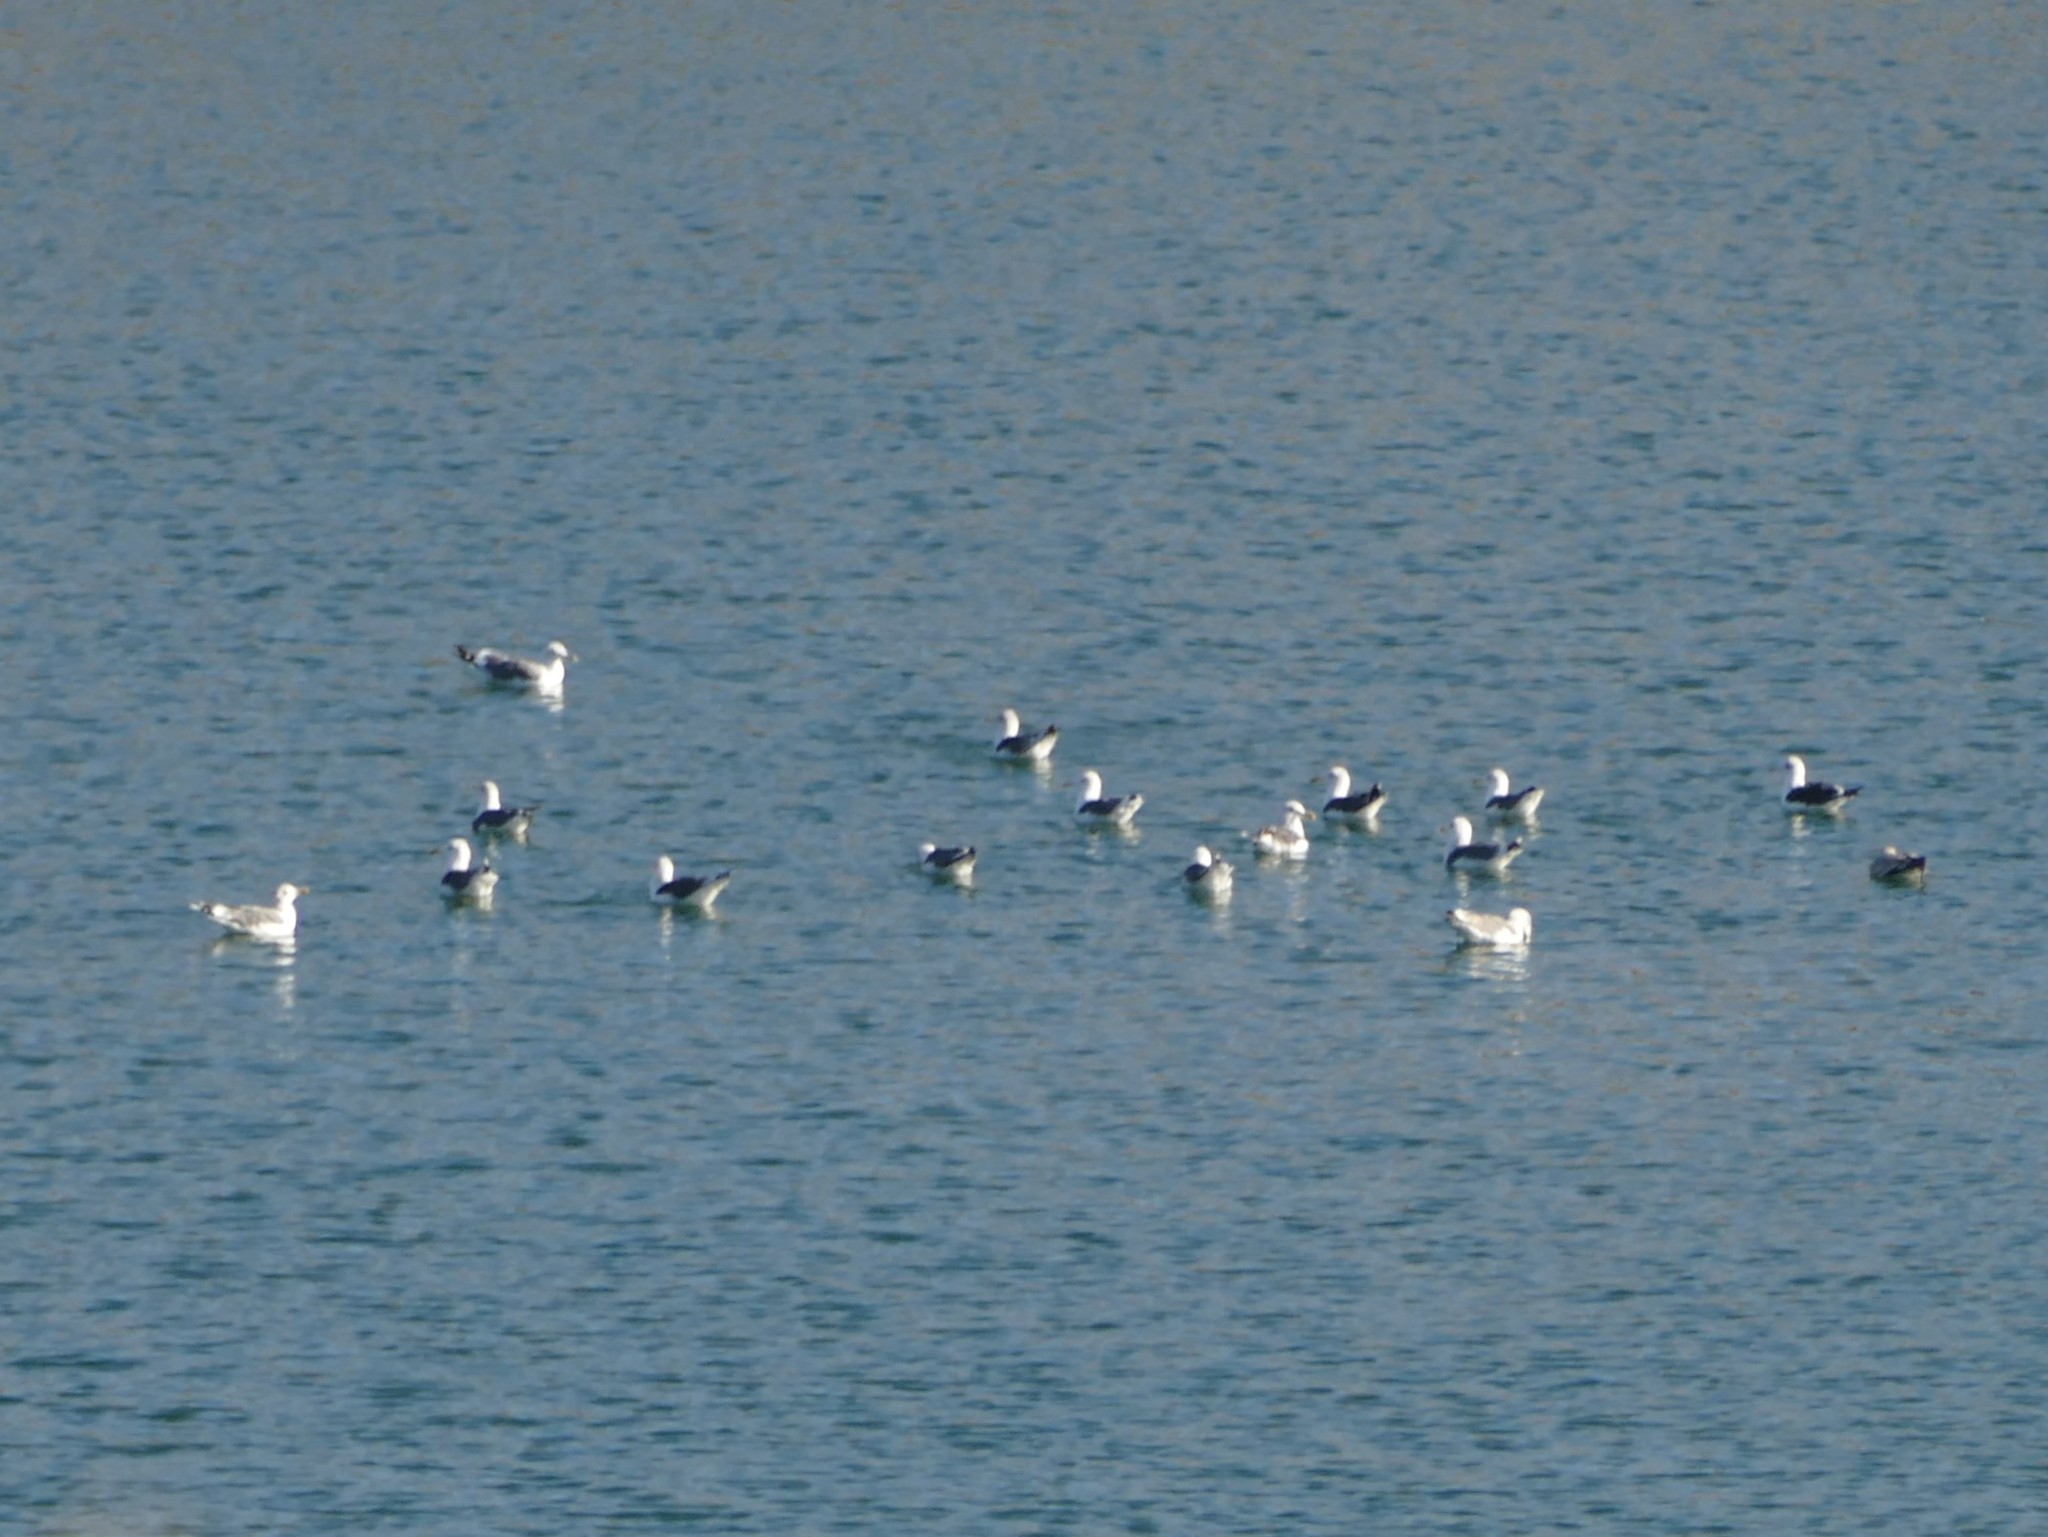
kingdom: Animalia
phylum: Chordata
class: Aves
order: Charadriiformes
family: Laridae
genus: Larus
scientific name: Larus fuscus
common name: Lesser black-backed gull
